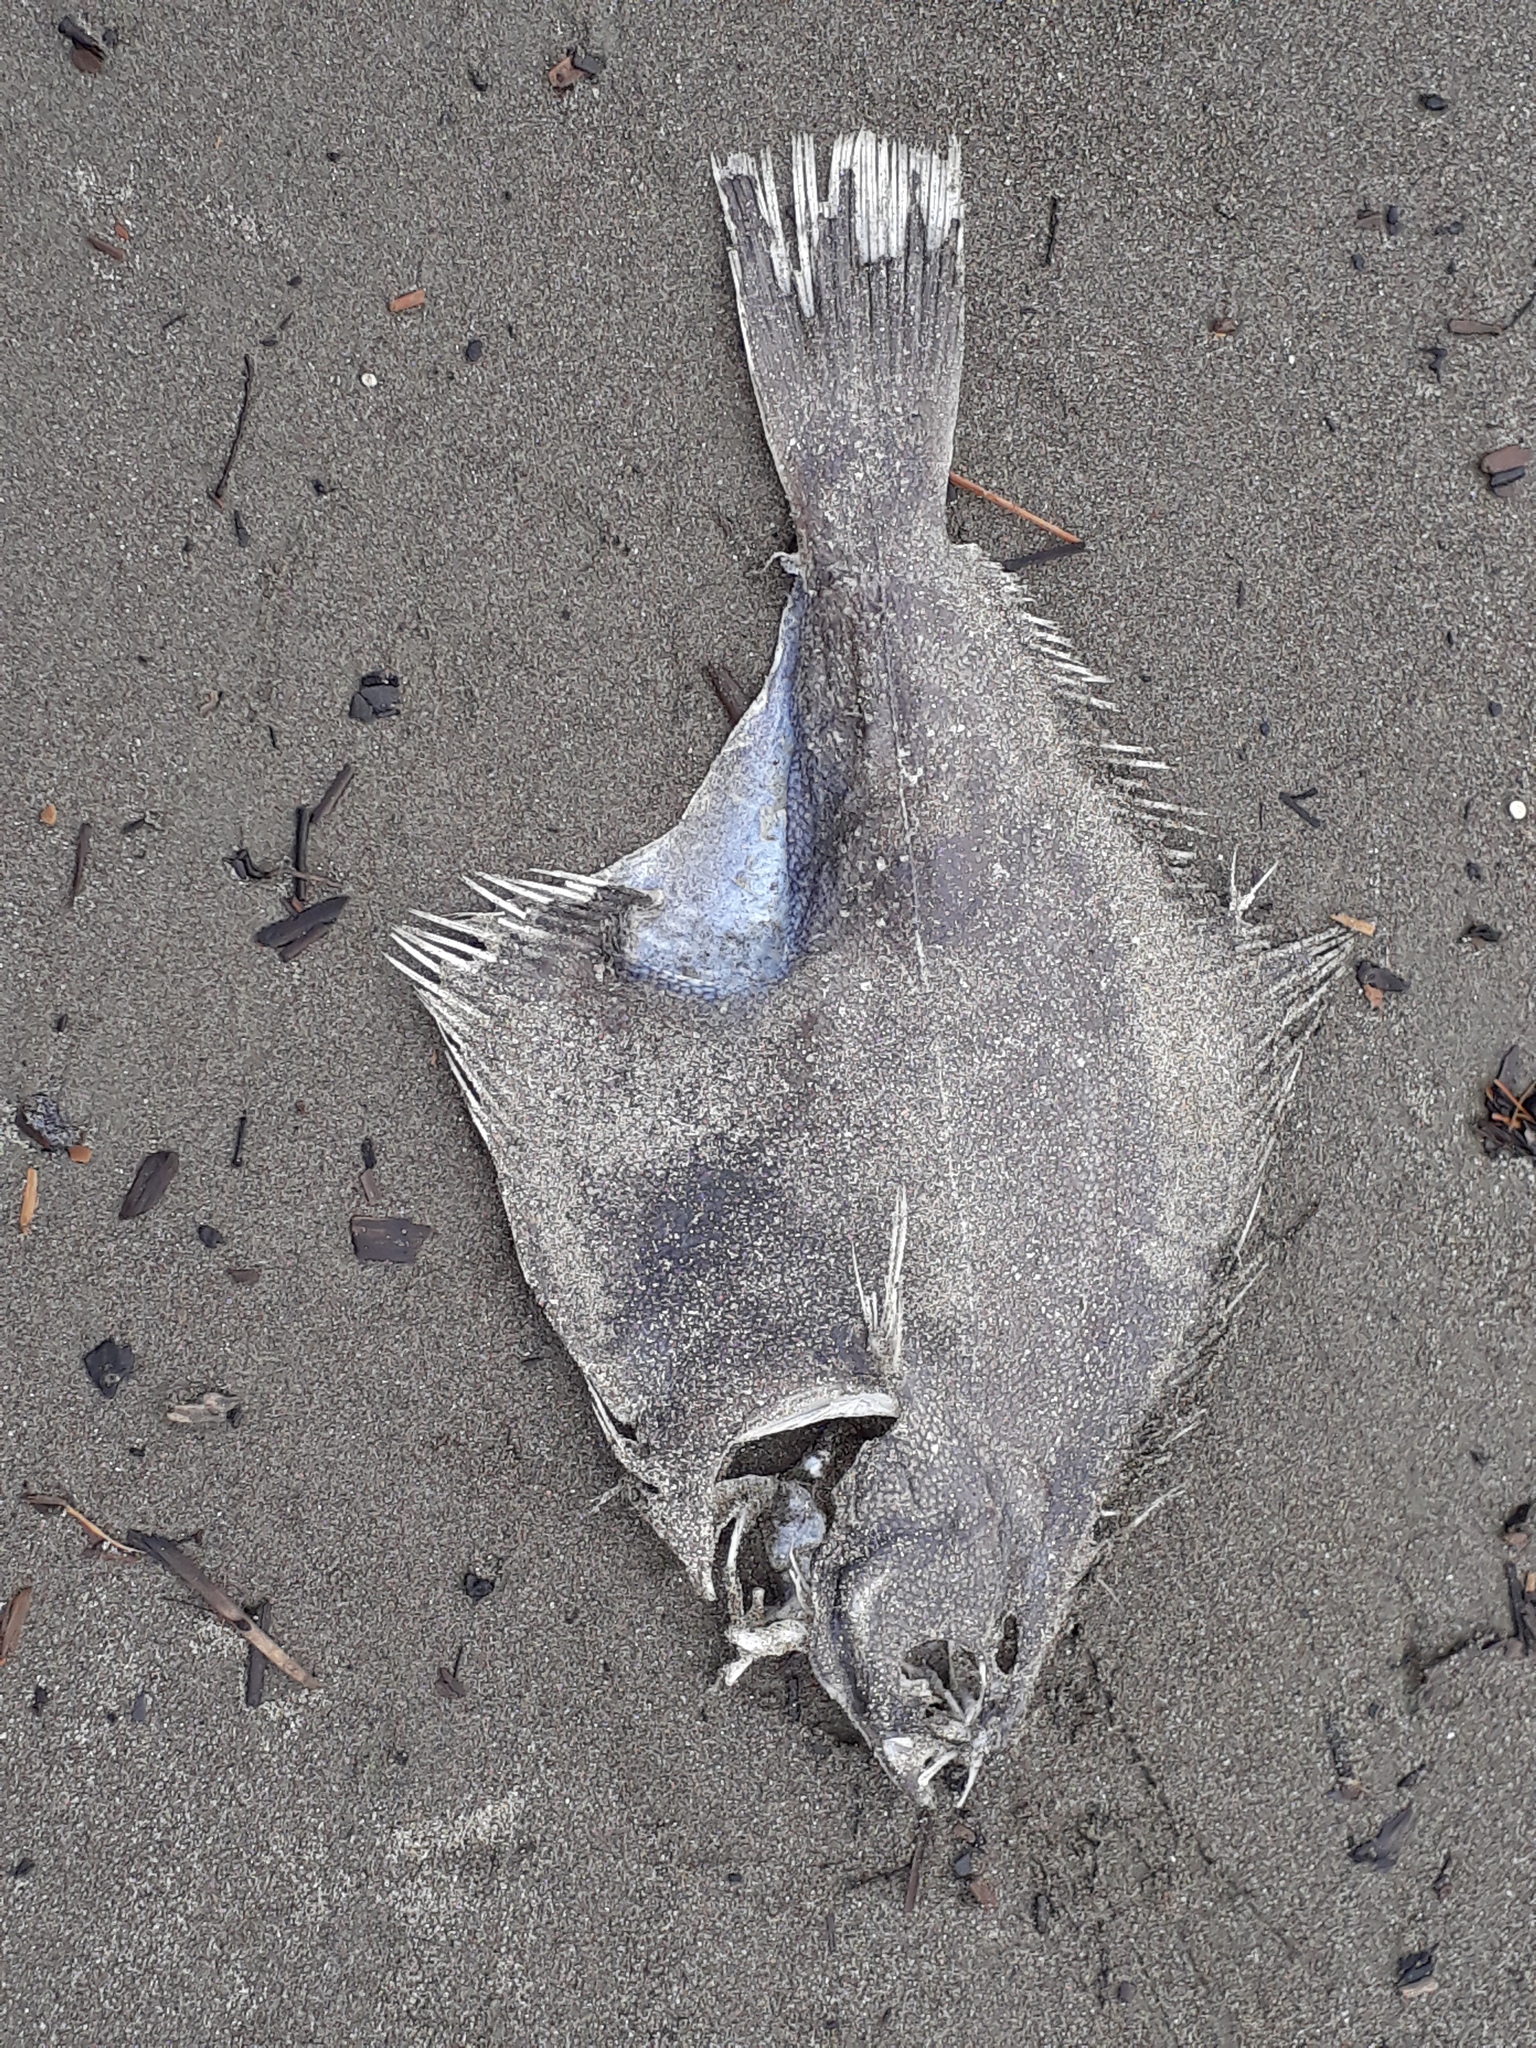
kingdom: Animalia
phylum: Chordata
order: Pleuronectiformes
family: Pleuronectidae
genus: Rhombosolea
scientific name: Rhombosolea plebeia
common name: Dab
